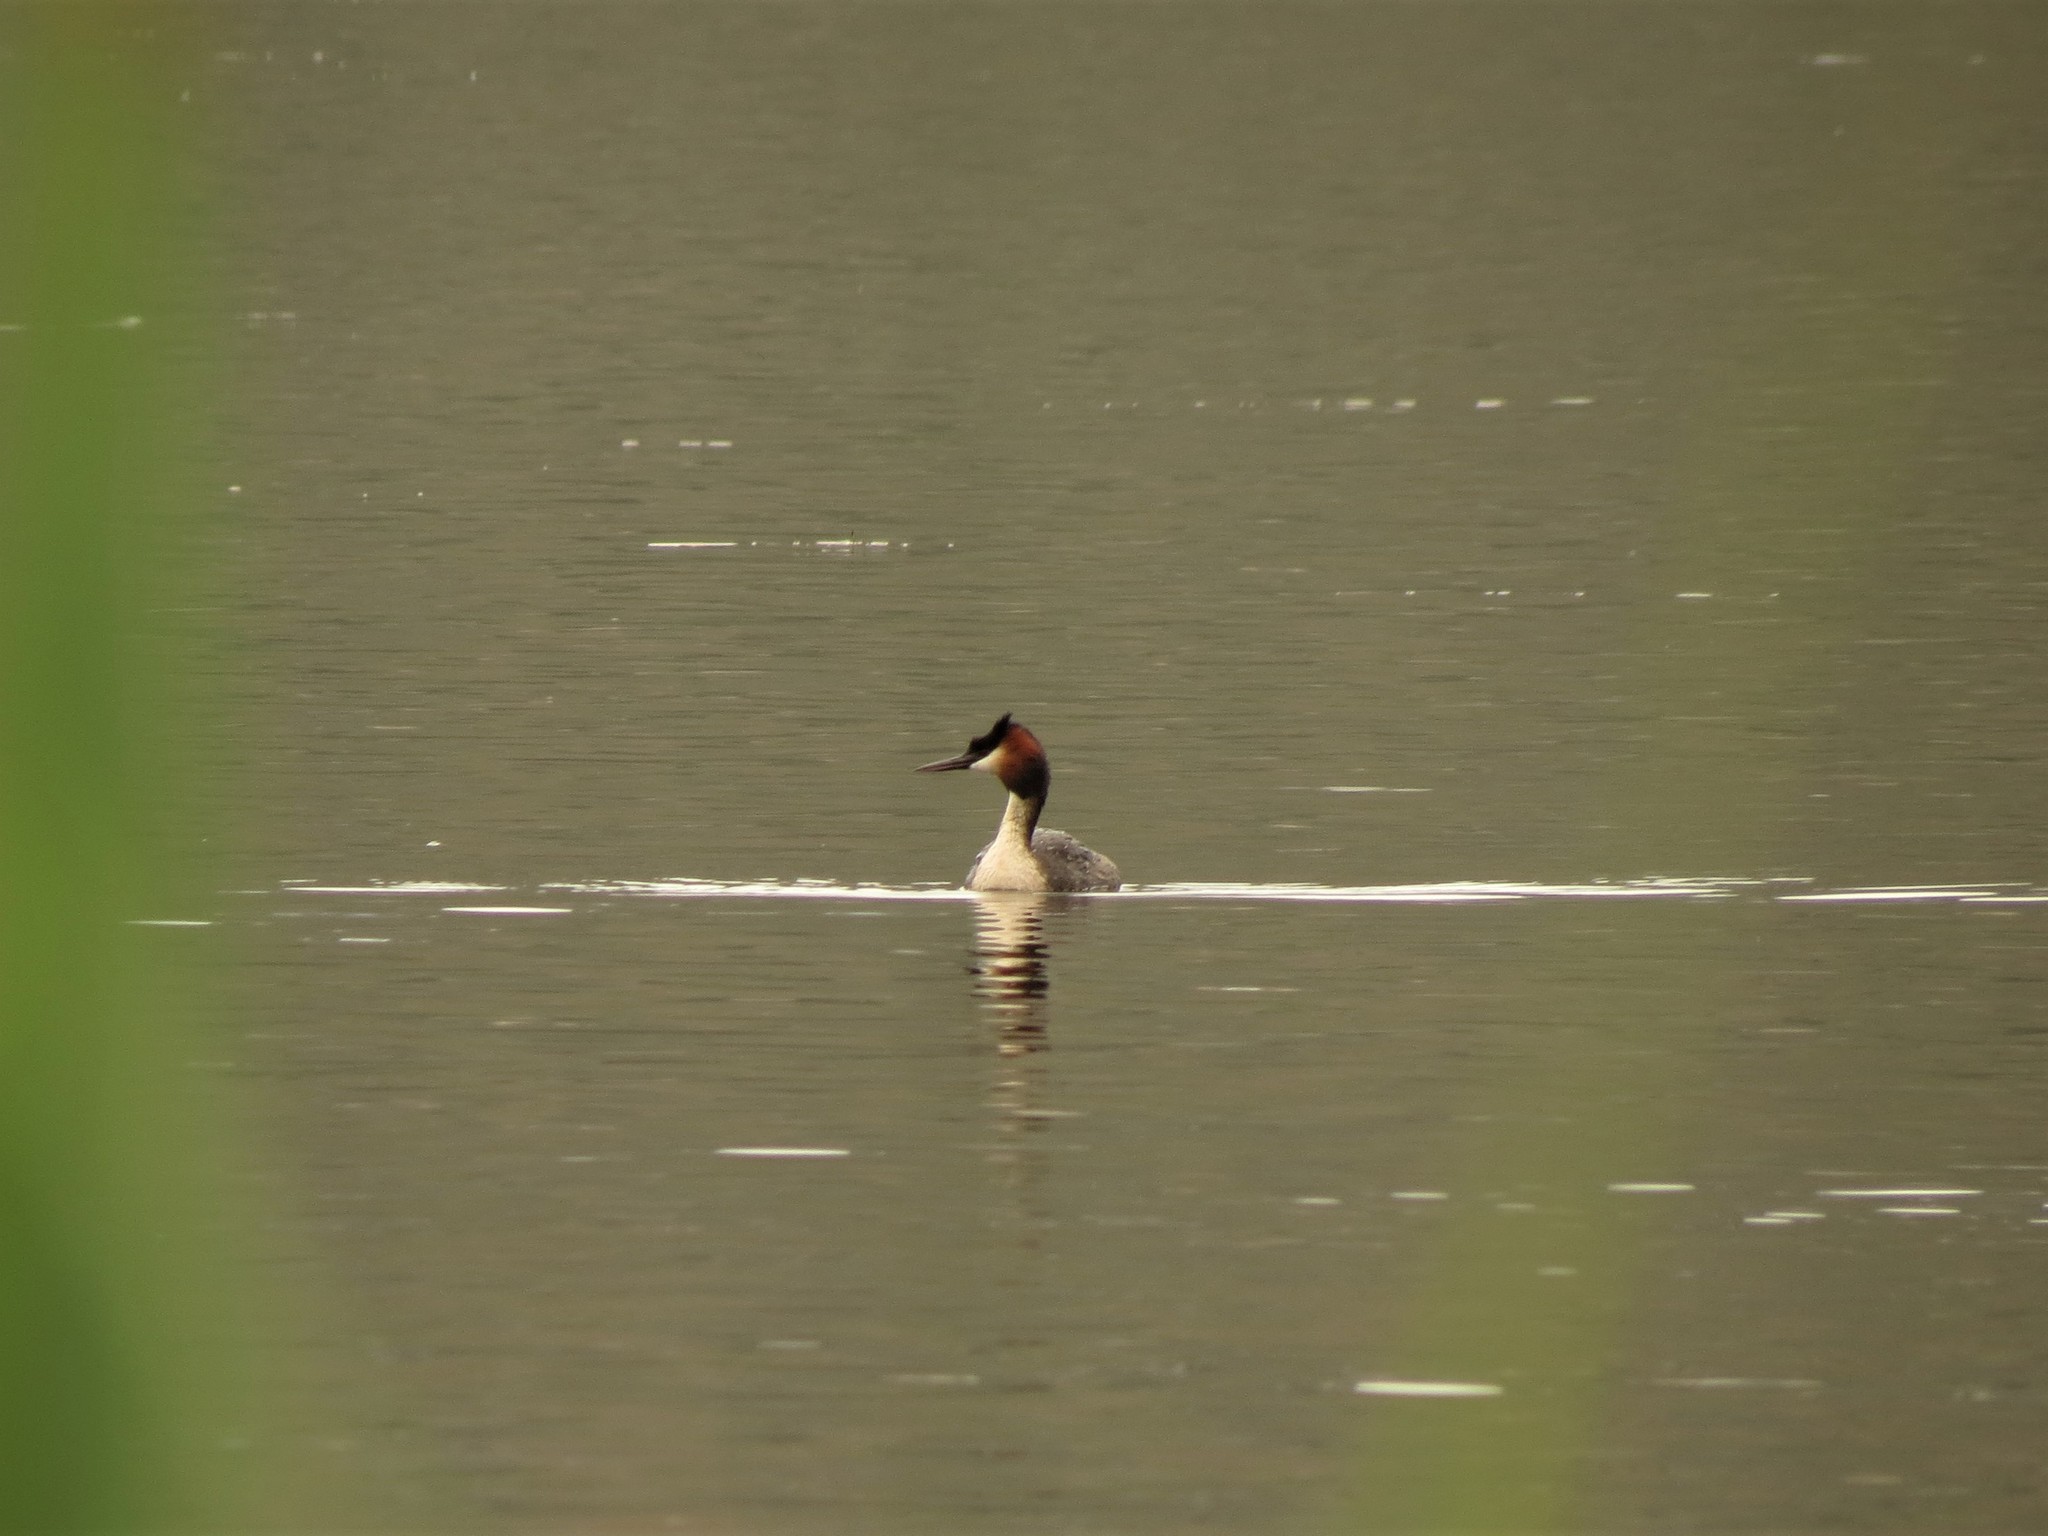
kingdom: Animalia
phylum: Chordata
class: Aves
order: Podicipediformes
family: Podicipedidae
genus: Podiceps
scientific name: Podiceps cristatus
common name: Great crested grebe
